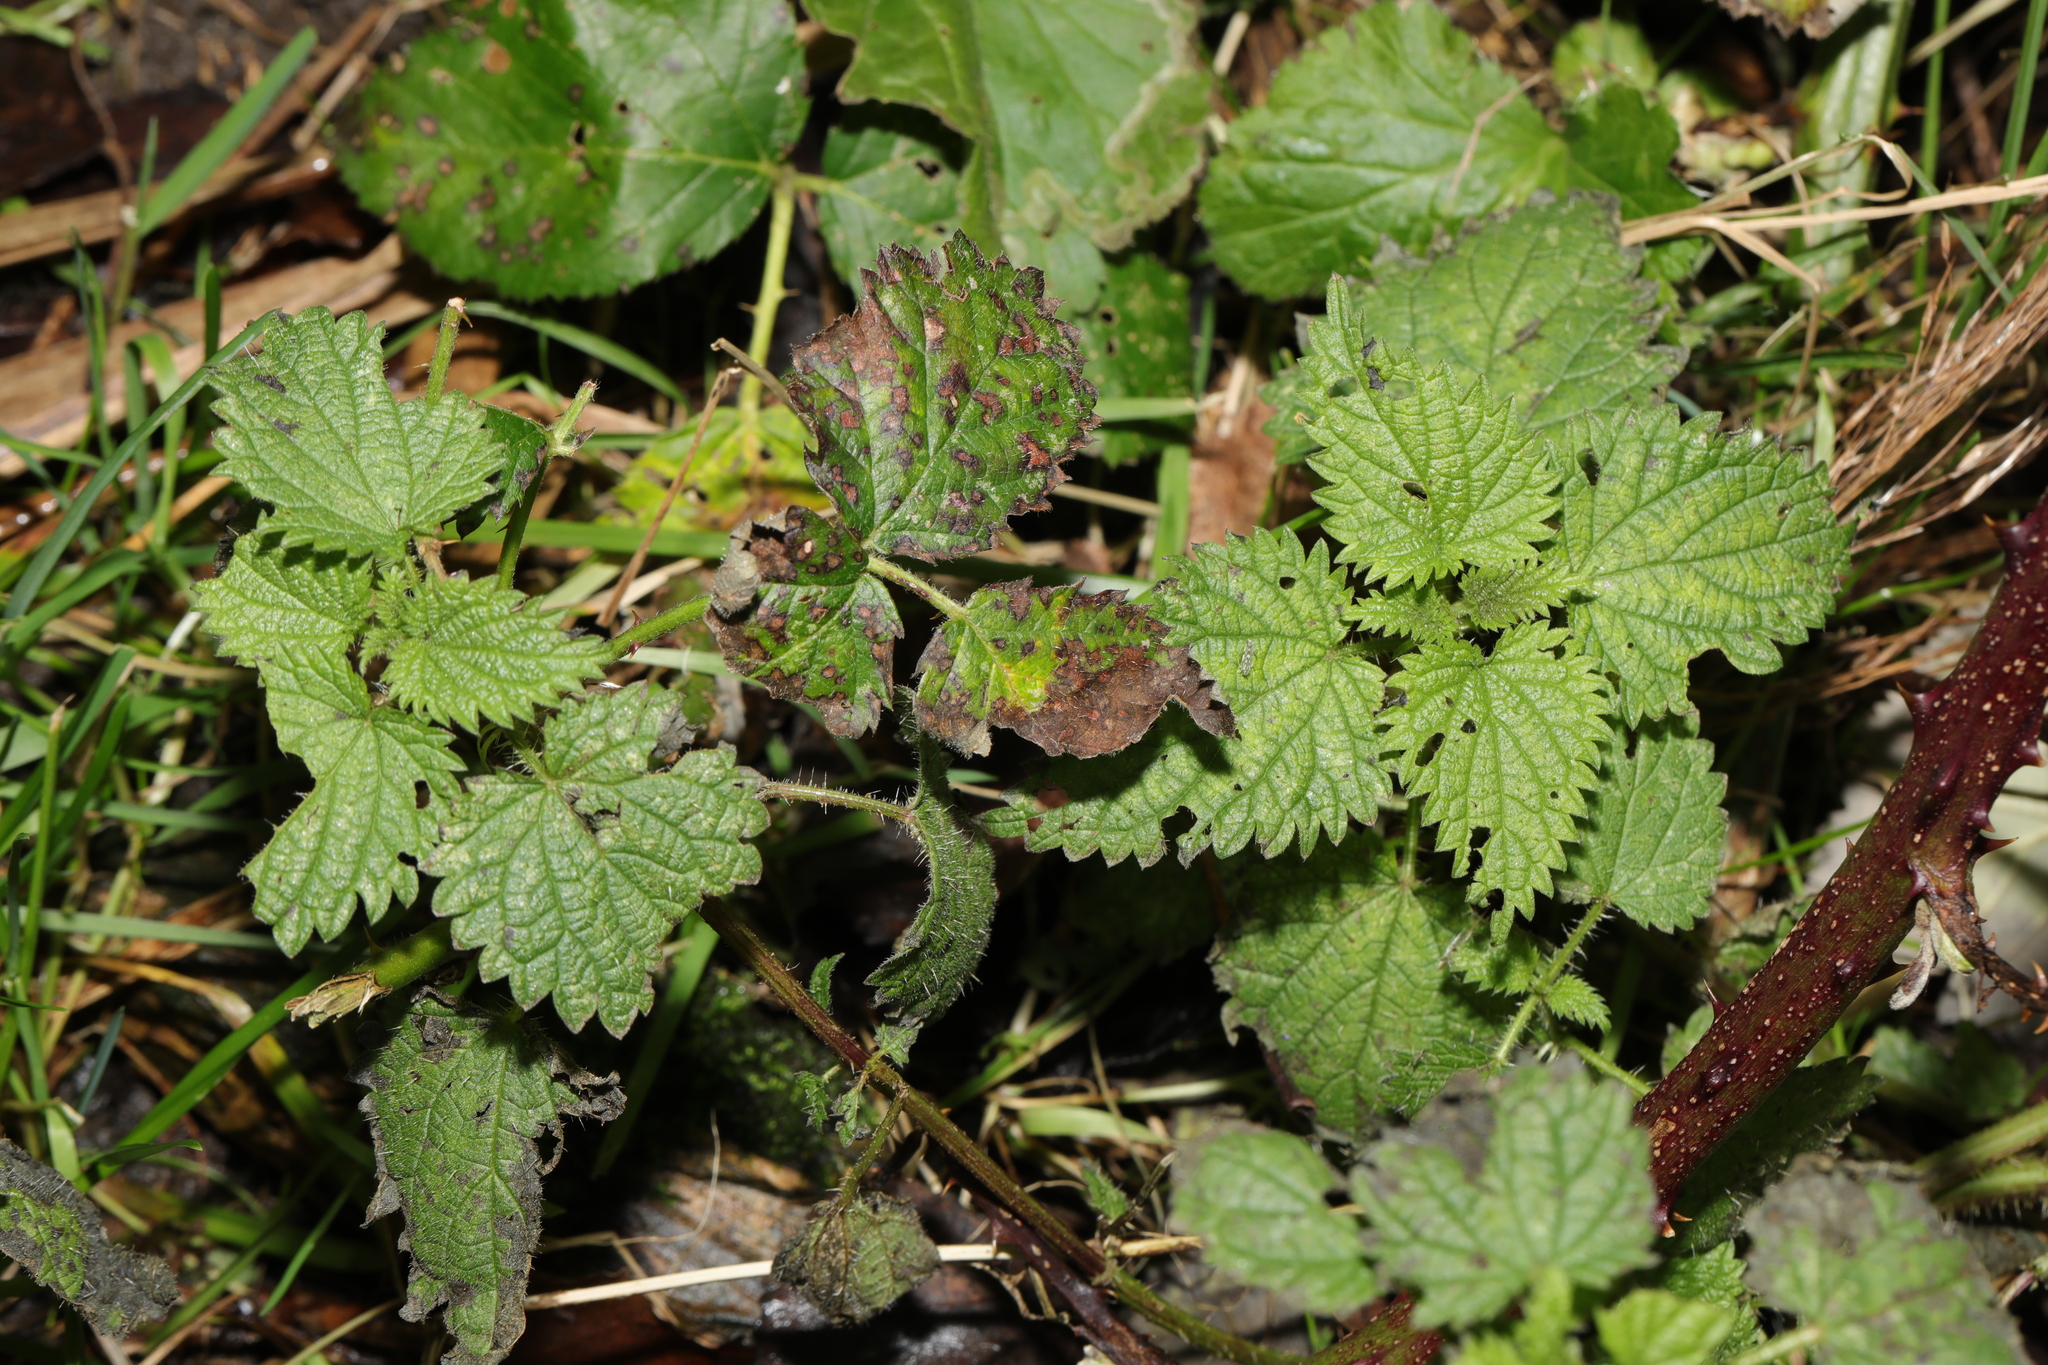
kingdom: Plantae
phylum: Tracheophyta
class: Magnoliopsida
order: Rosales
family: Urticaceae
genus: Urtica
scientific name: Urtica dioica
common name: Common nettle
